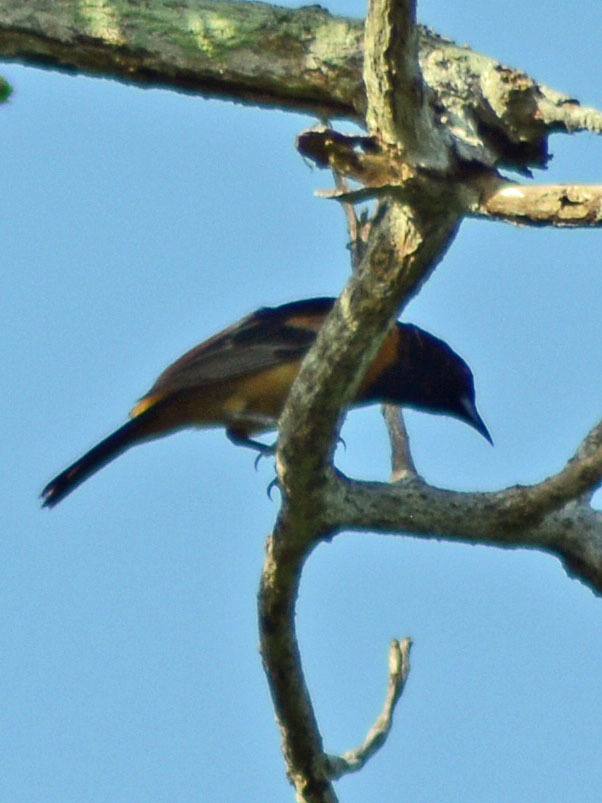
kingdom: Animalia
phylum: Chordata
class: Aves
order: Passeriformes
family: Icteridae
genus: Icterus
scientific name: Icterus spurius
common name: Orchard oriole
